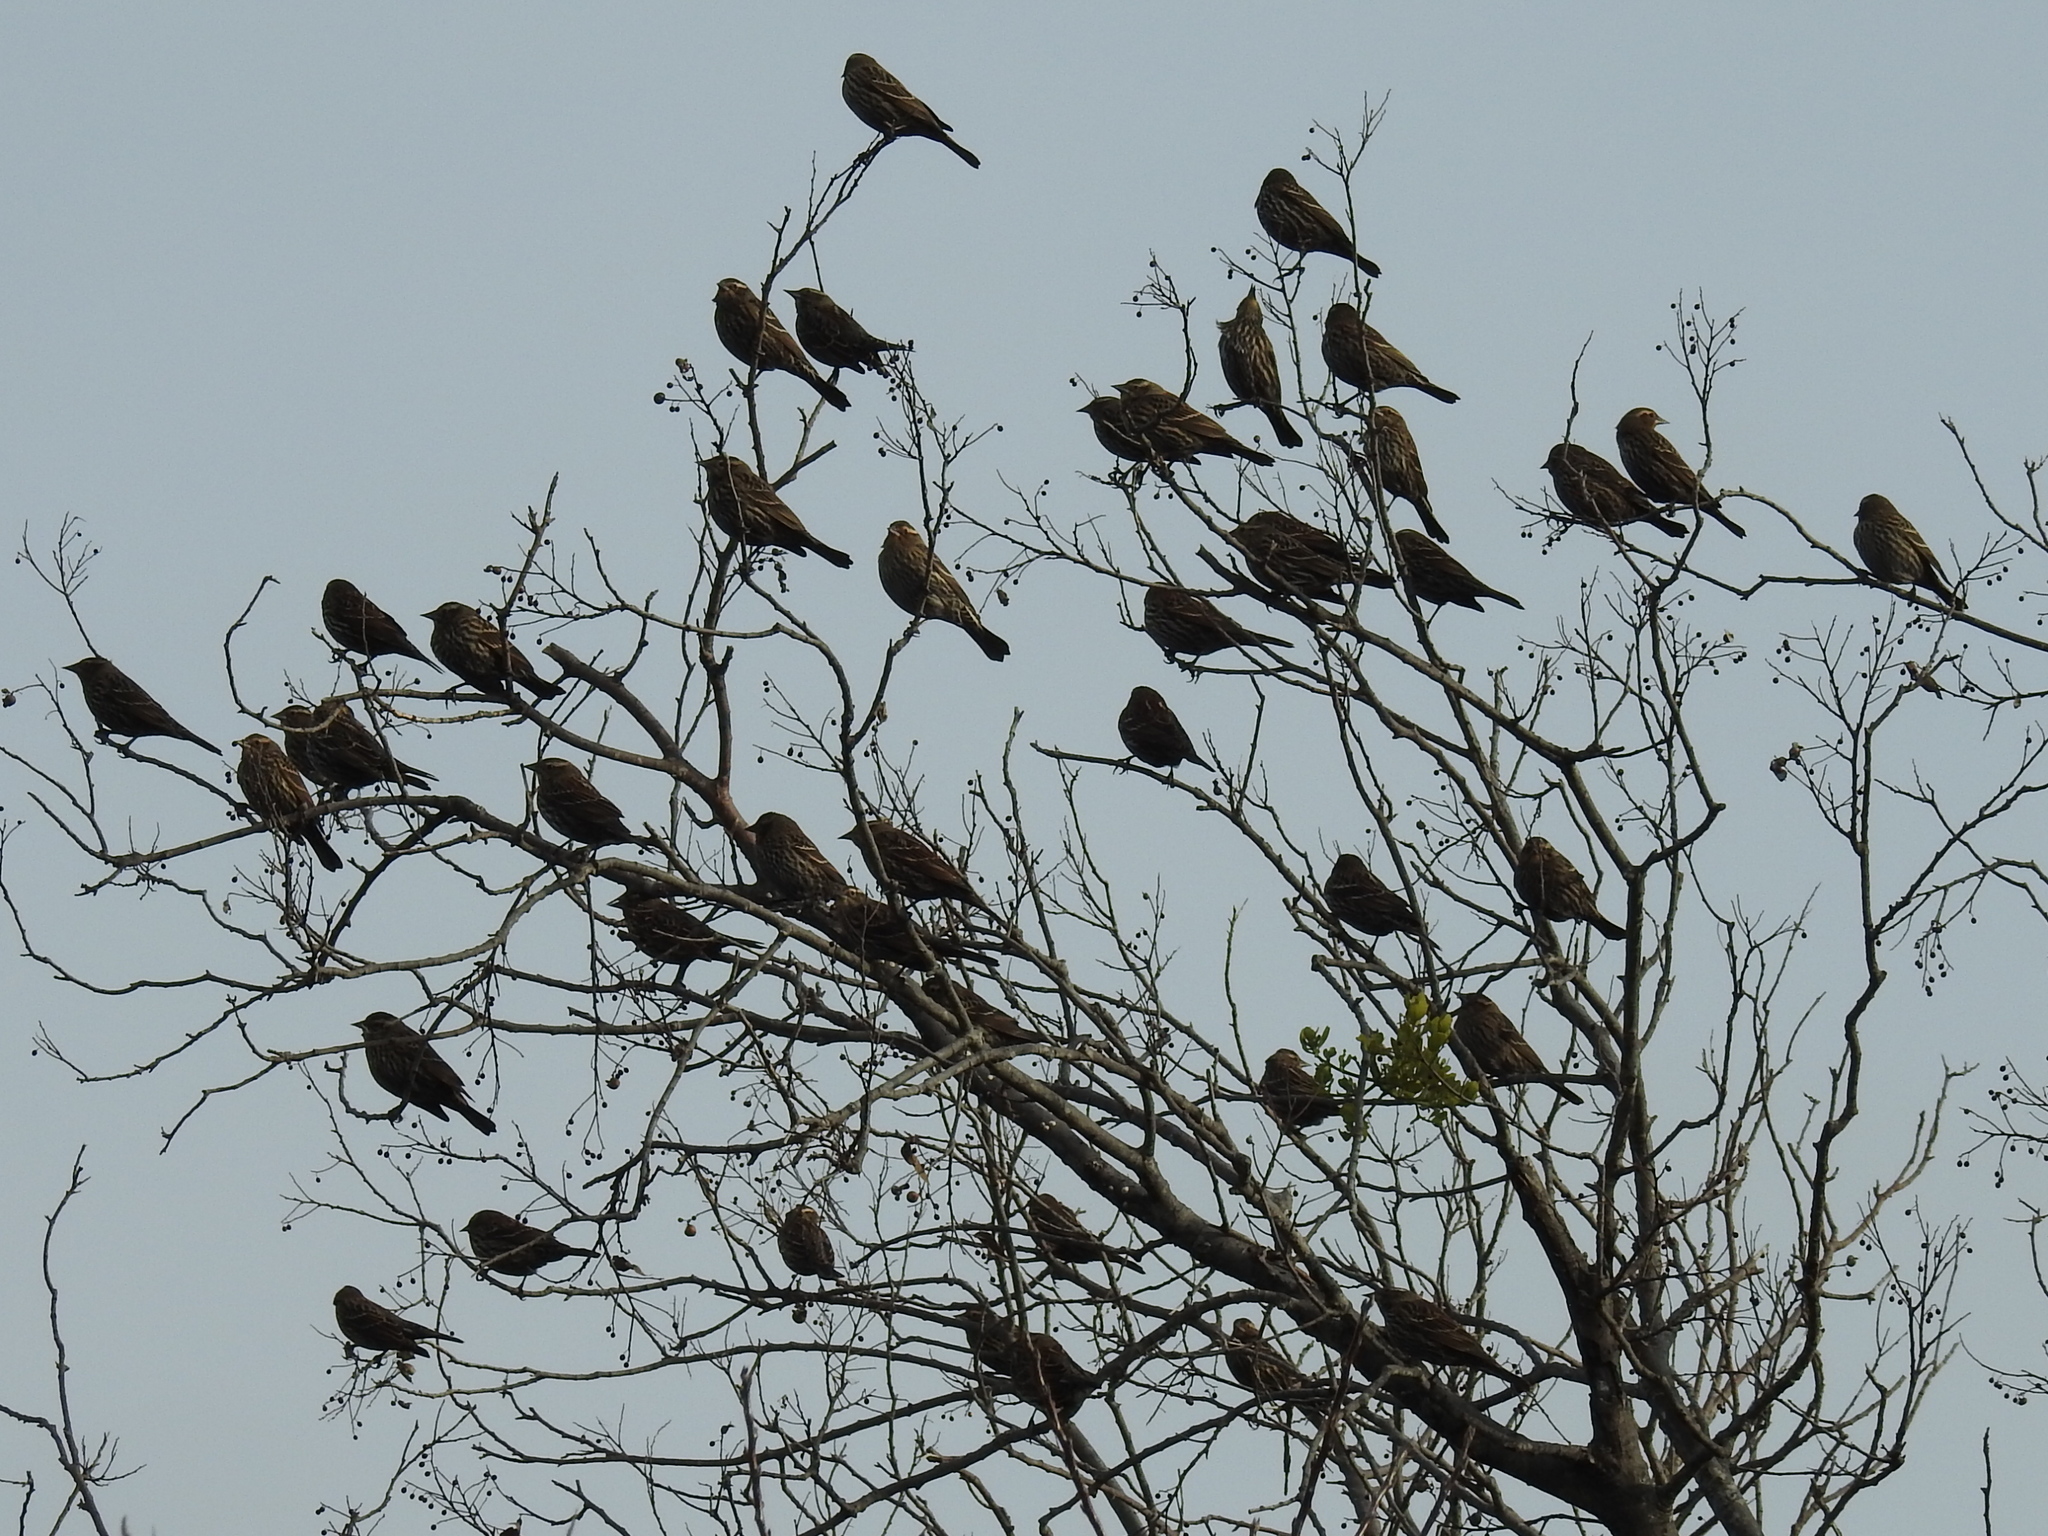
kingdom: Animalia
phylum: Chordata
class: Aves
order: Passeriformes
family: Icteridae
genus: Agelaius
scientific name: Agelaius phoeniceus
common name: Red-winged blackbird
